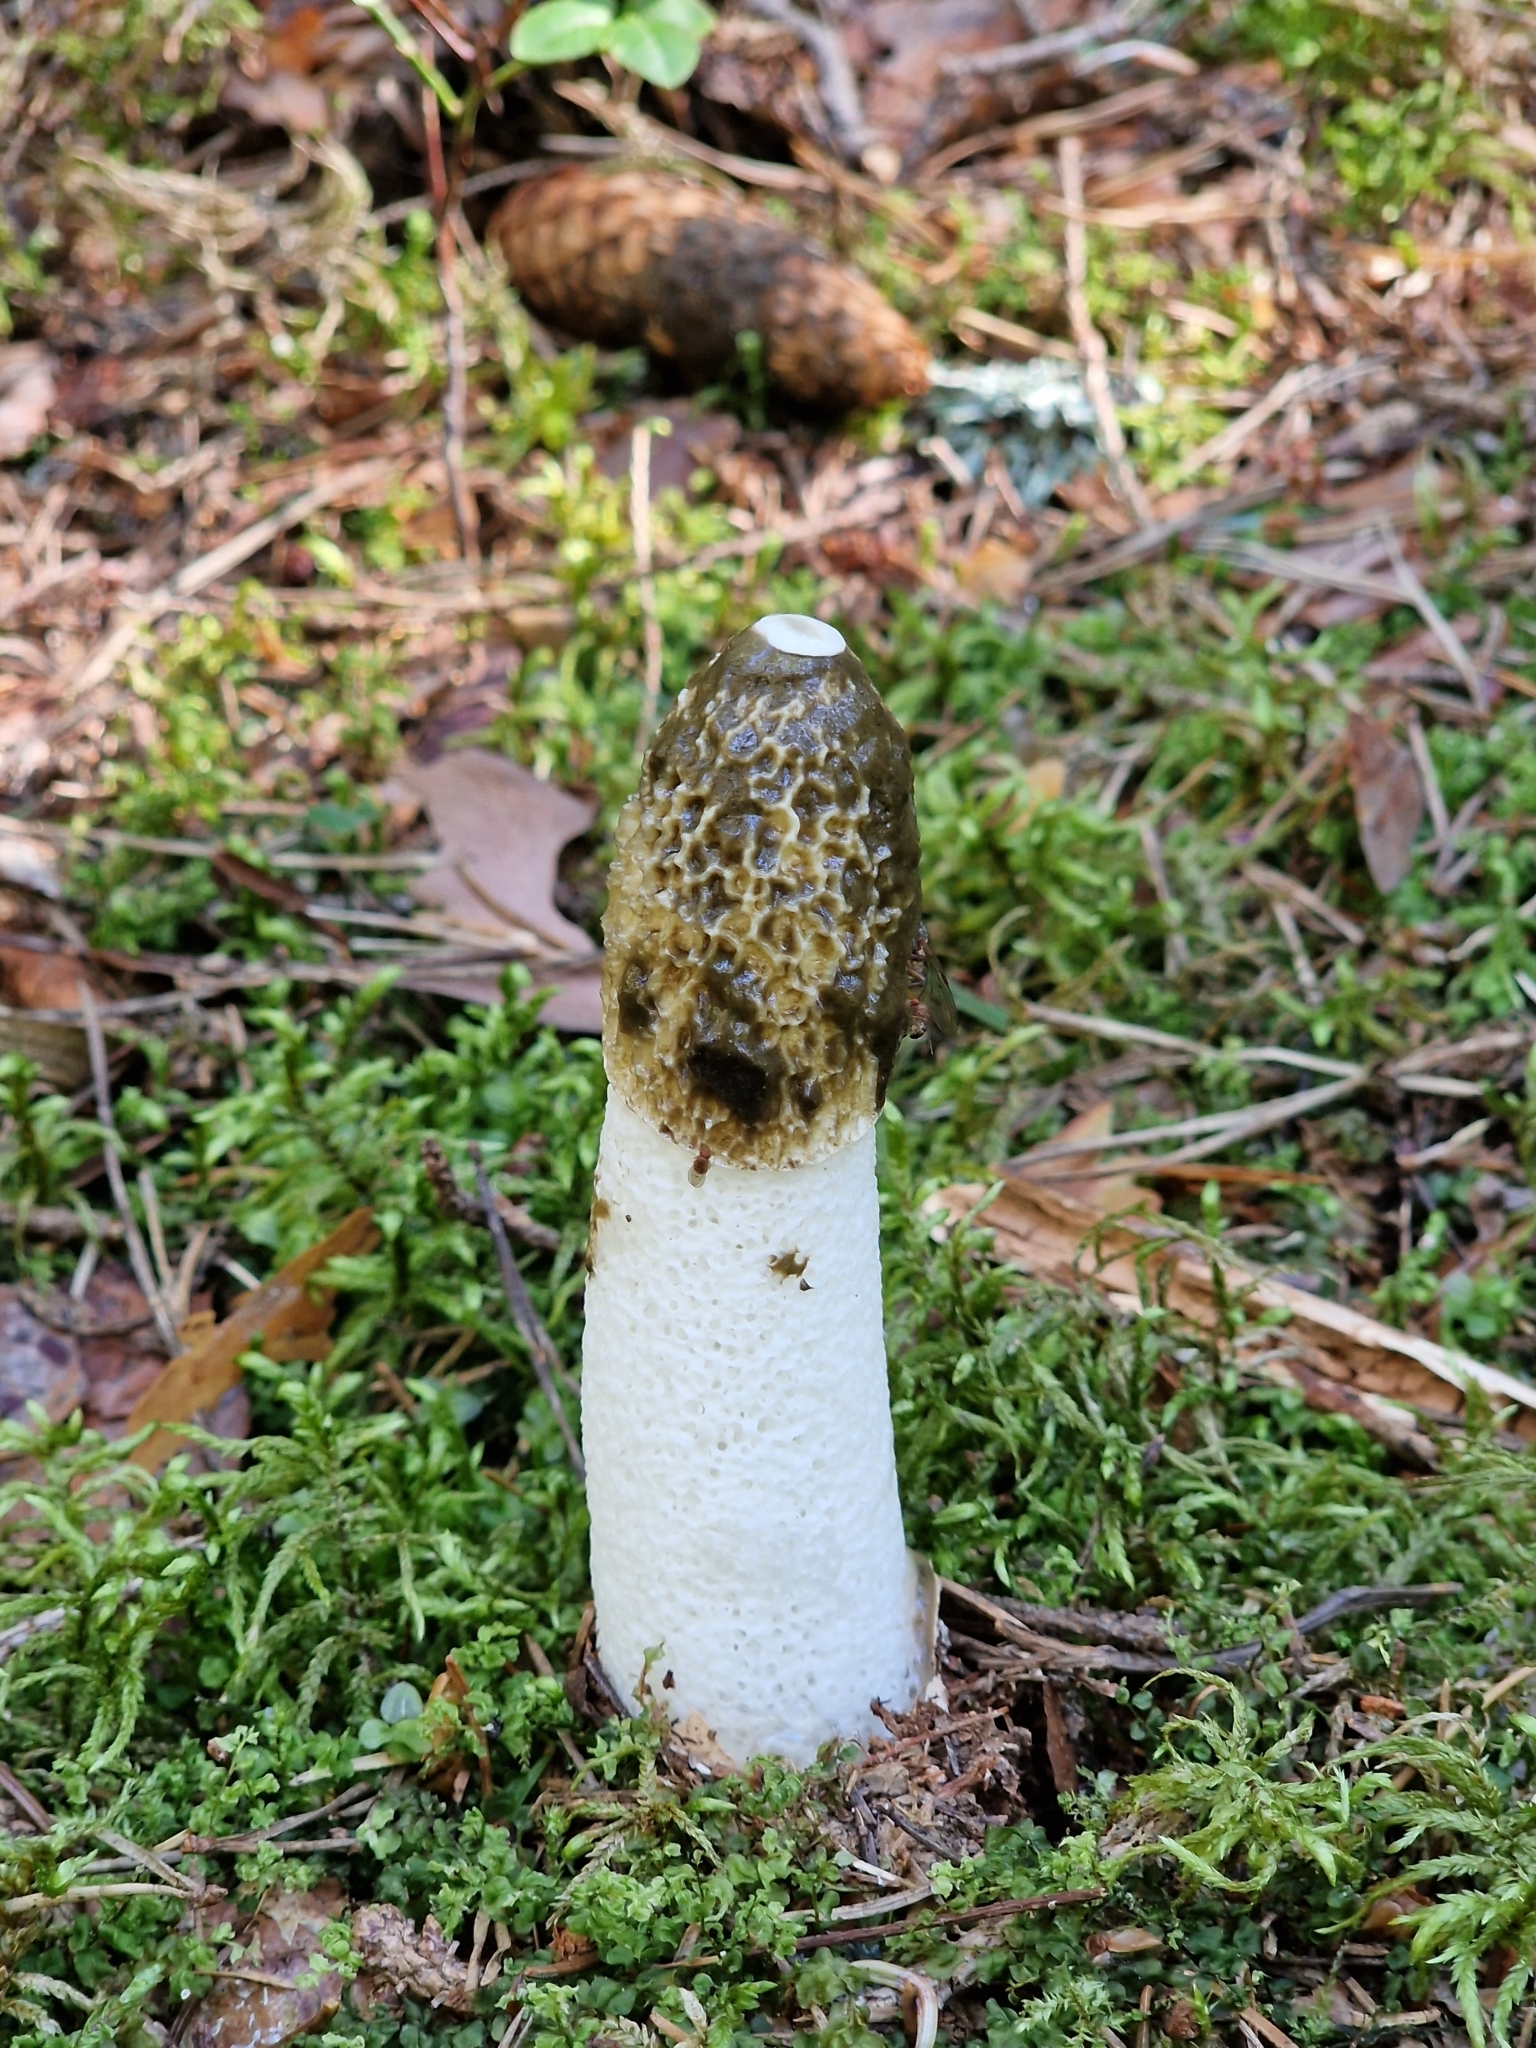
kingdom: Fungi
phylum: Basidiomycota
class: Agaricomycetes
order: Phallales
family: Phallaceae
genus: Phallus
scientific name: Phallus impudicus
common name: Common stinkhorn
